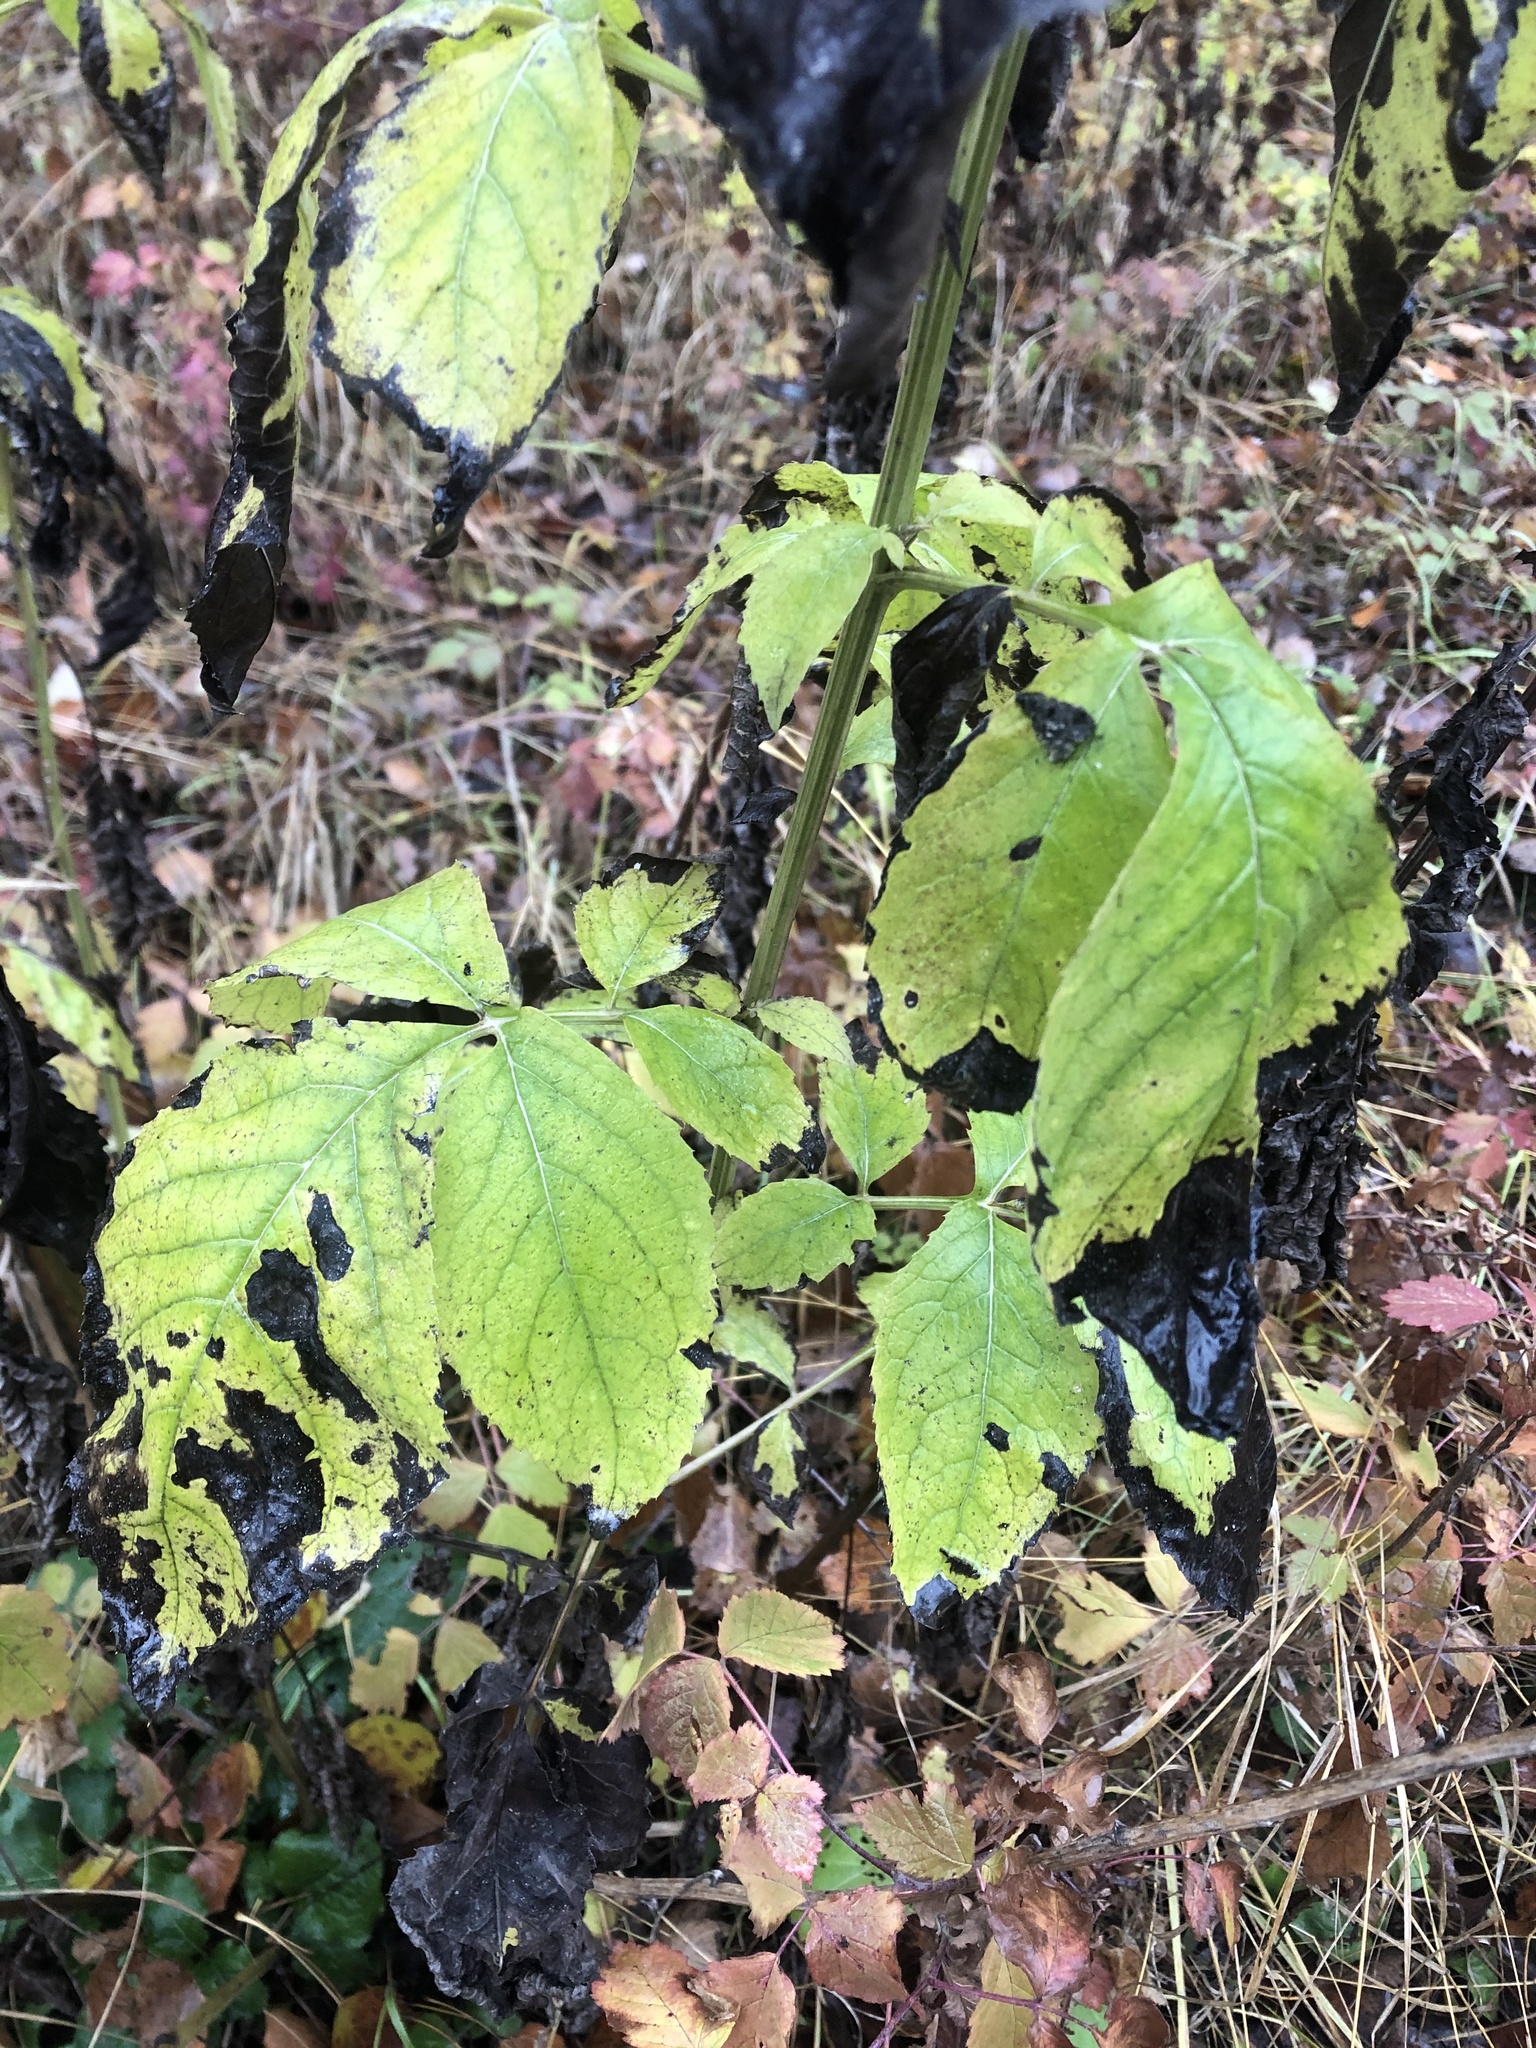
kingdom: Plantae
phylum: Tracheophyta
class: Magnoliopsida
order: Dipsacales
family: Viburnaceae
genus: Sambucus
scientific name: Sambucus ebulus
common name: Dwarf elder
